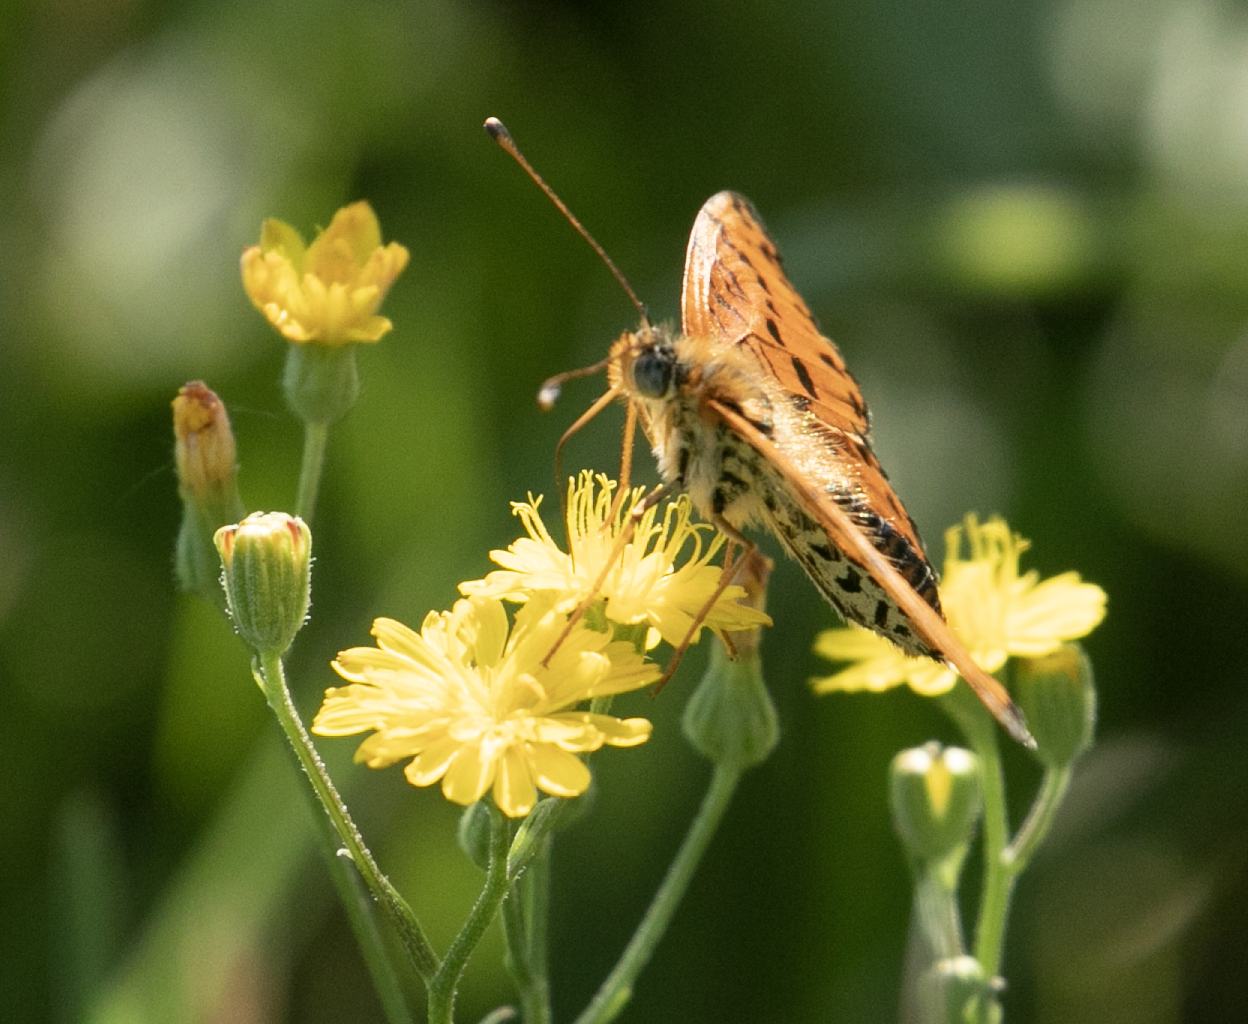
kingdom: Animalia
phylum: Arthropoda
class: Insecta
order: Lepidoptera
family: Nymphalidae
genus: Melitaea
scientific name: Melitaea didyma
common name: Spotted fritillary
